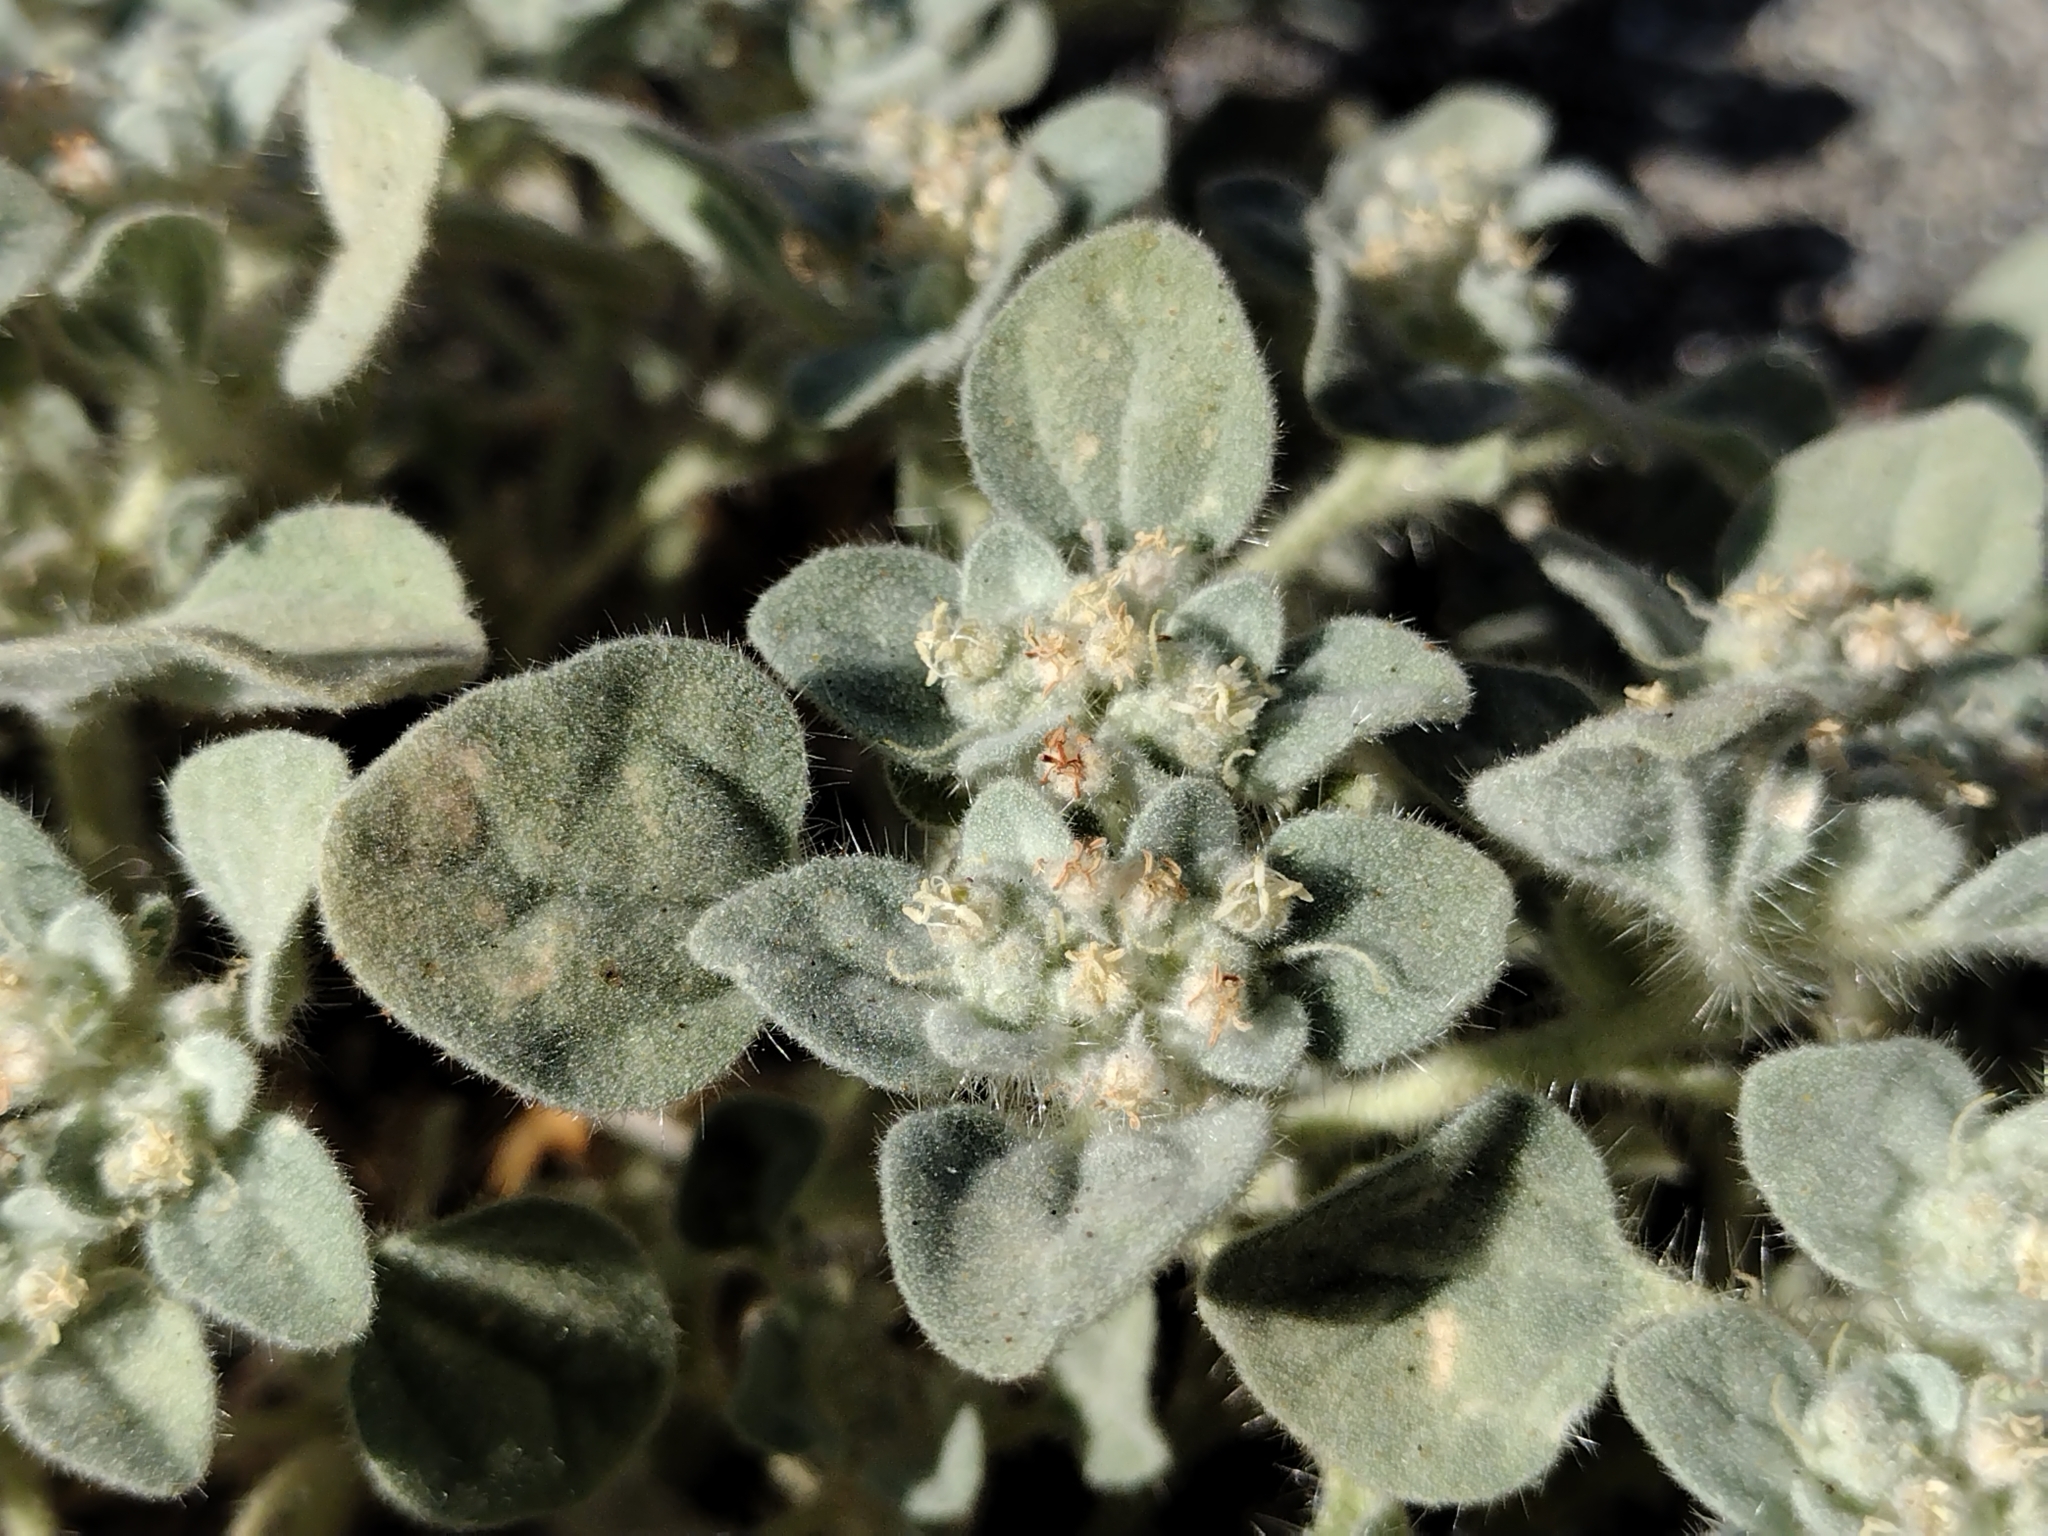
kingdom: Plantae
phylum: Tracheophyta
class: Magnoliopsida
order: Malpighiales
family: Euphorbiaceae
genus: Croton
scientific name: Croton setiger
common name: Dove weed
